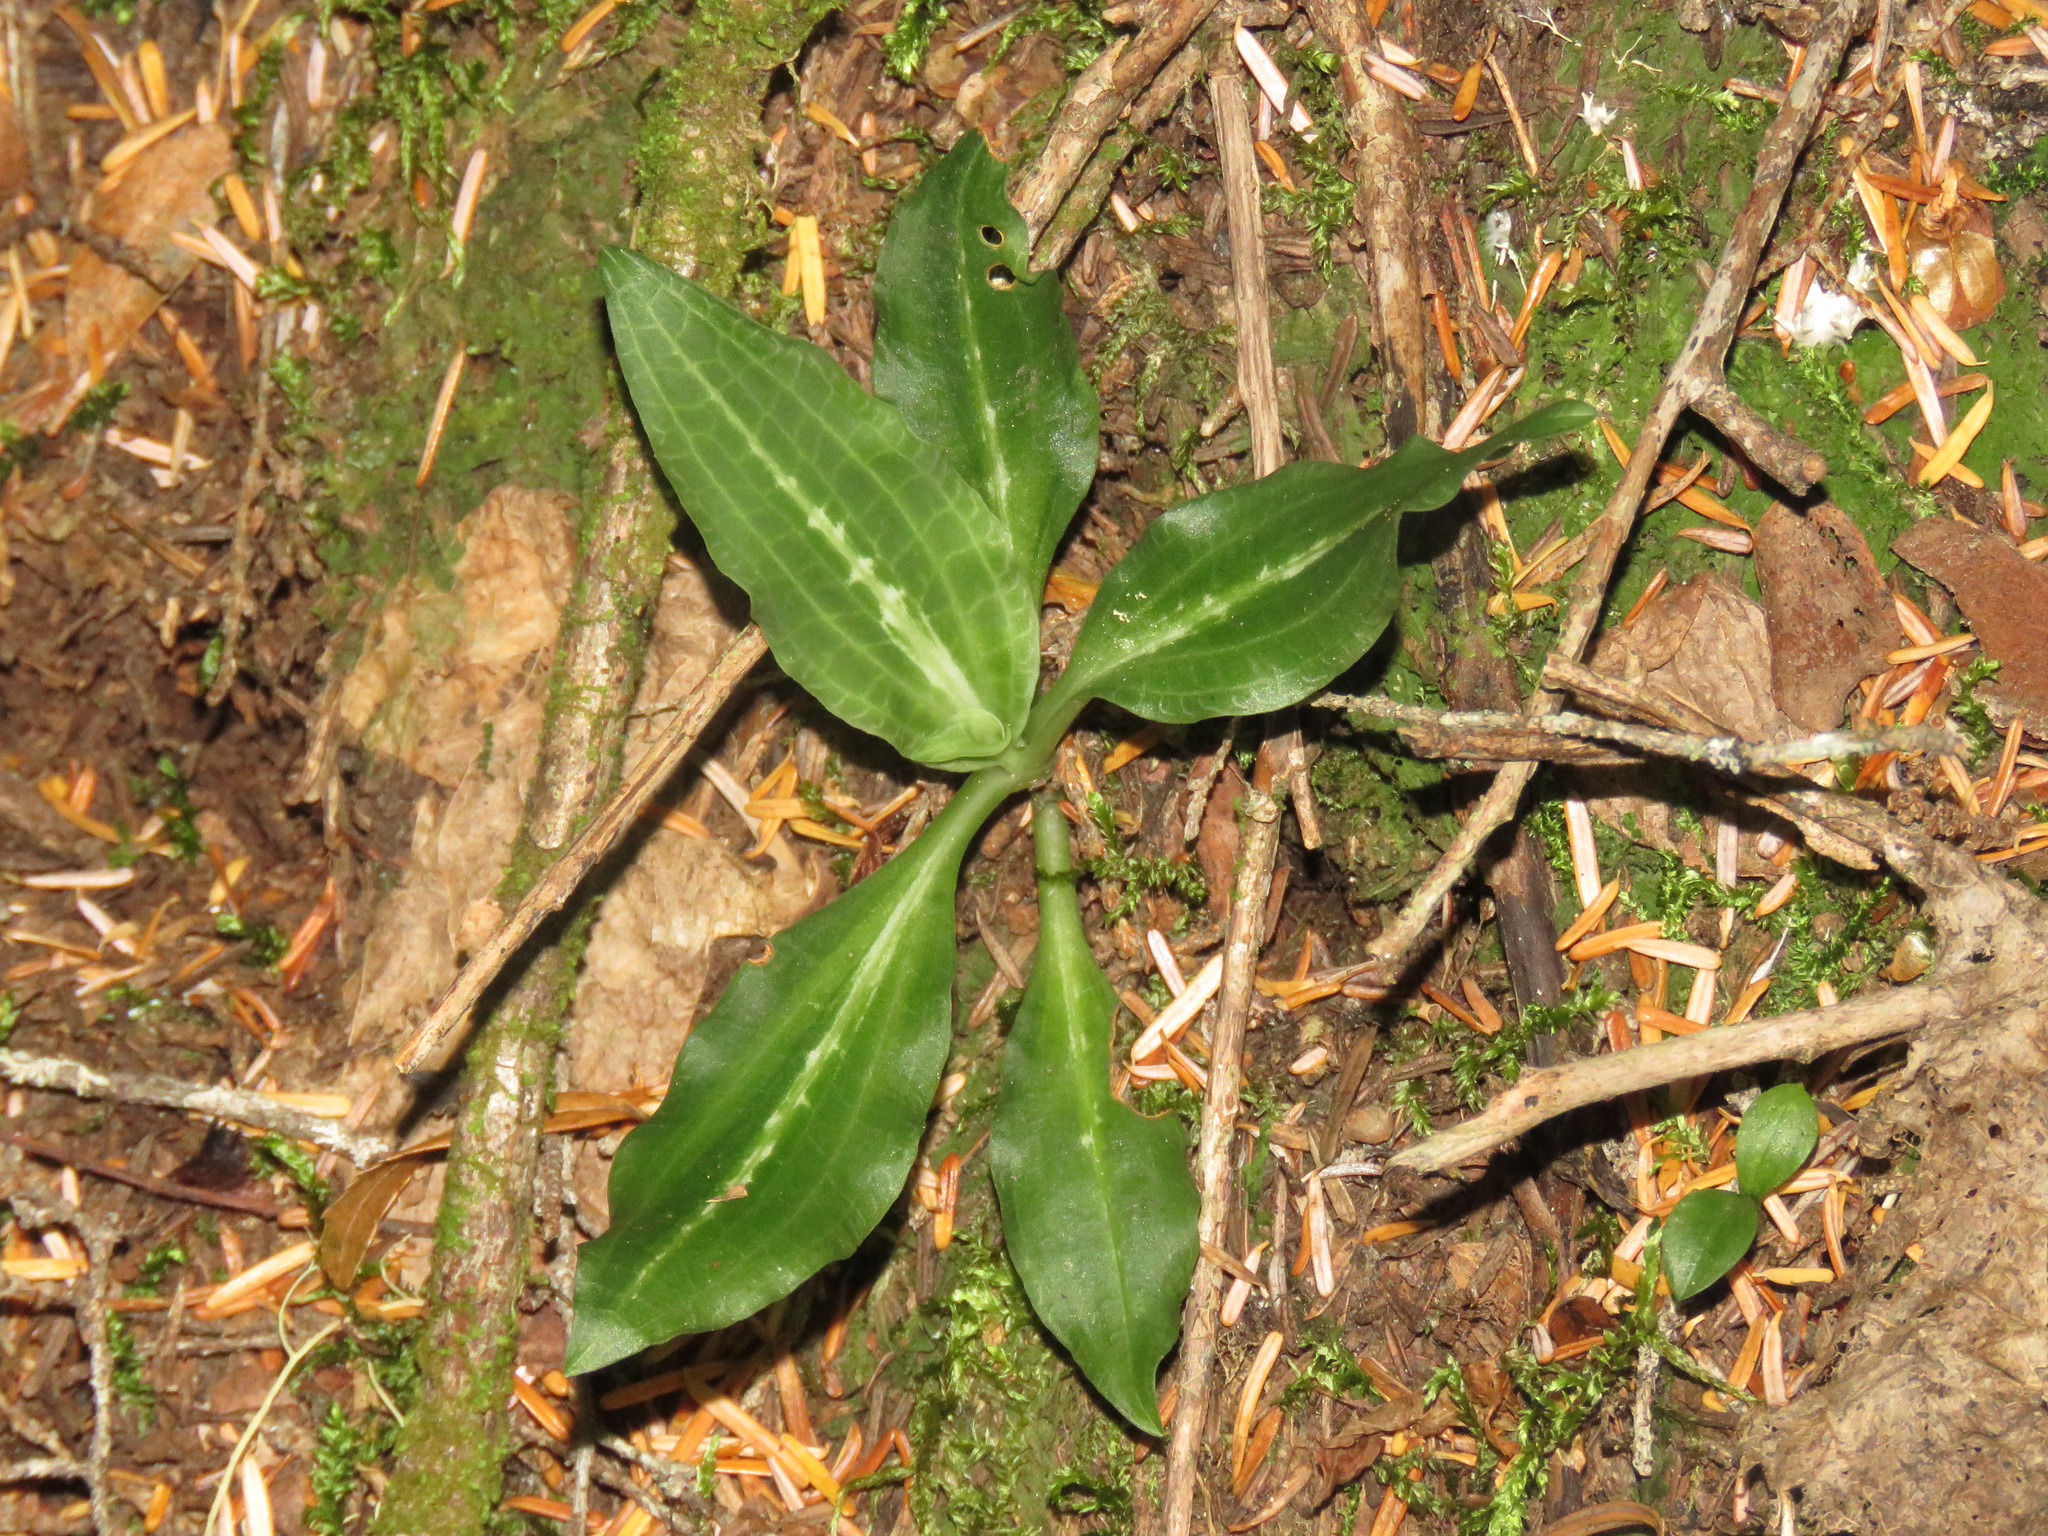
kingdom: Plantae
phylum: Tracheophyta
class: Liliopsida
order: Asparagales
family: Orchidaceae
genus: Goodyera
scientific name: Goodyera oblongifolia
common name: Giant rattlesnake-plantain
